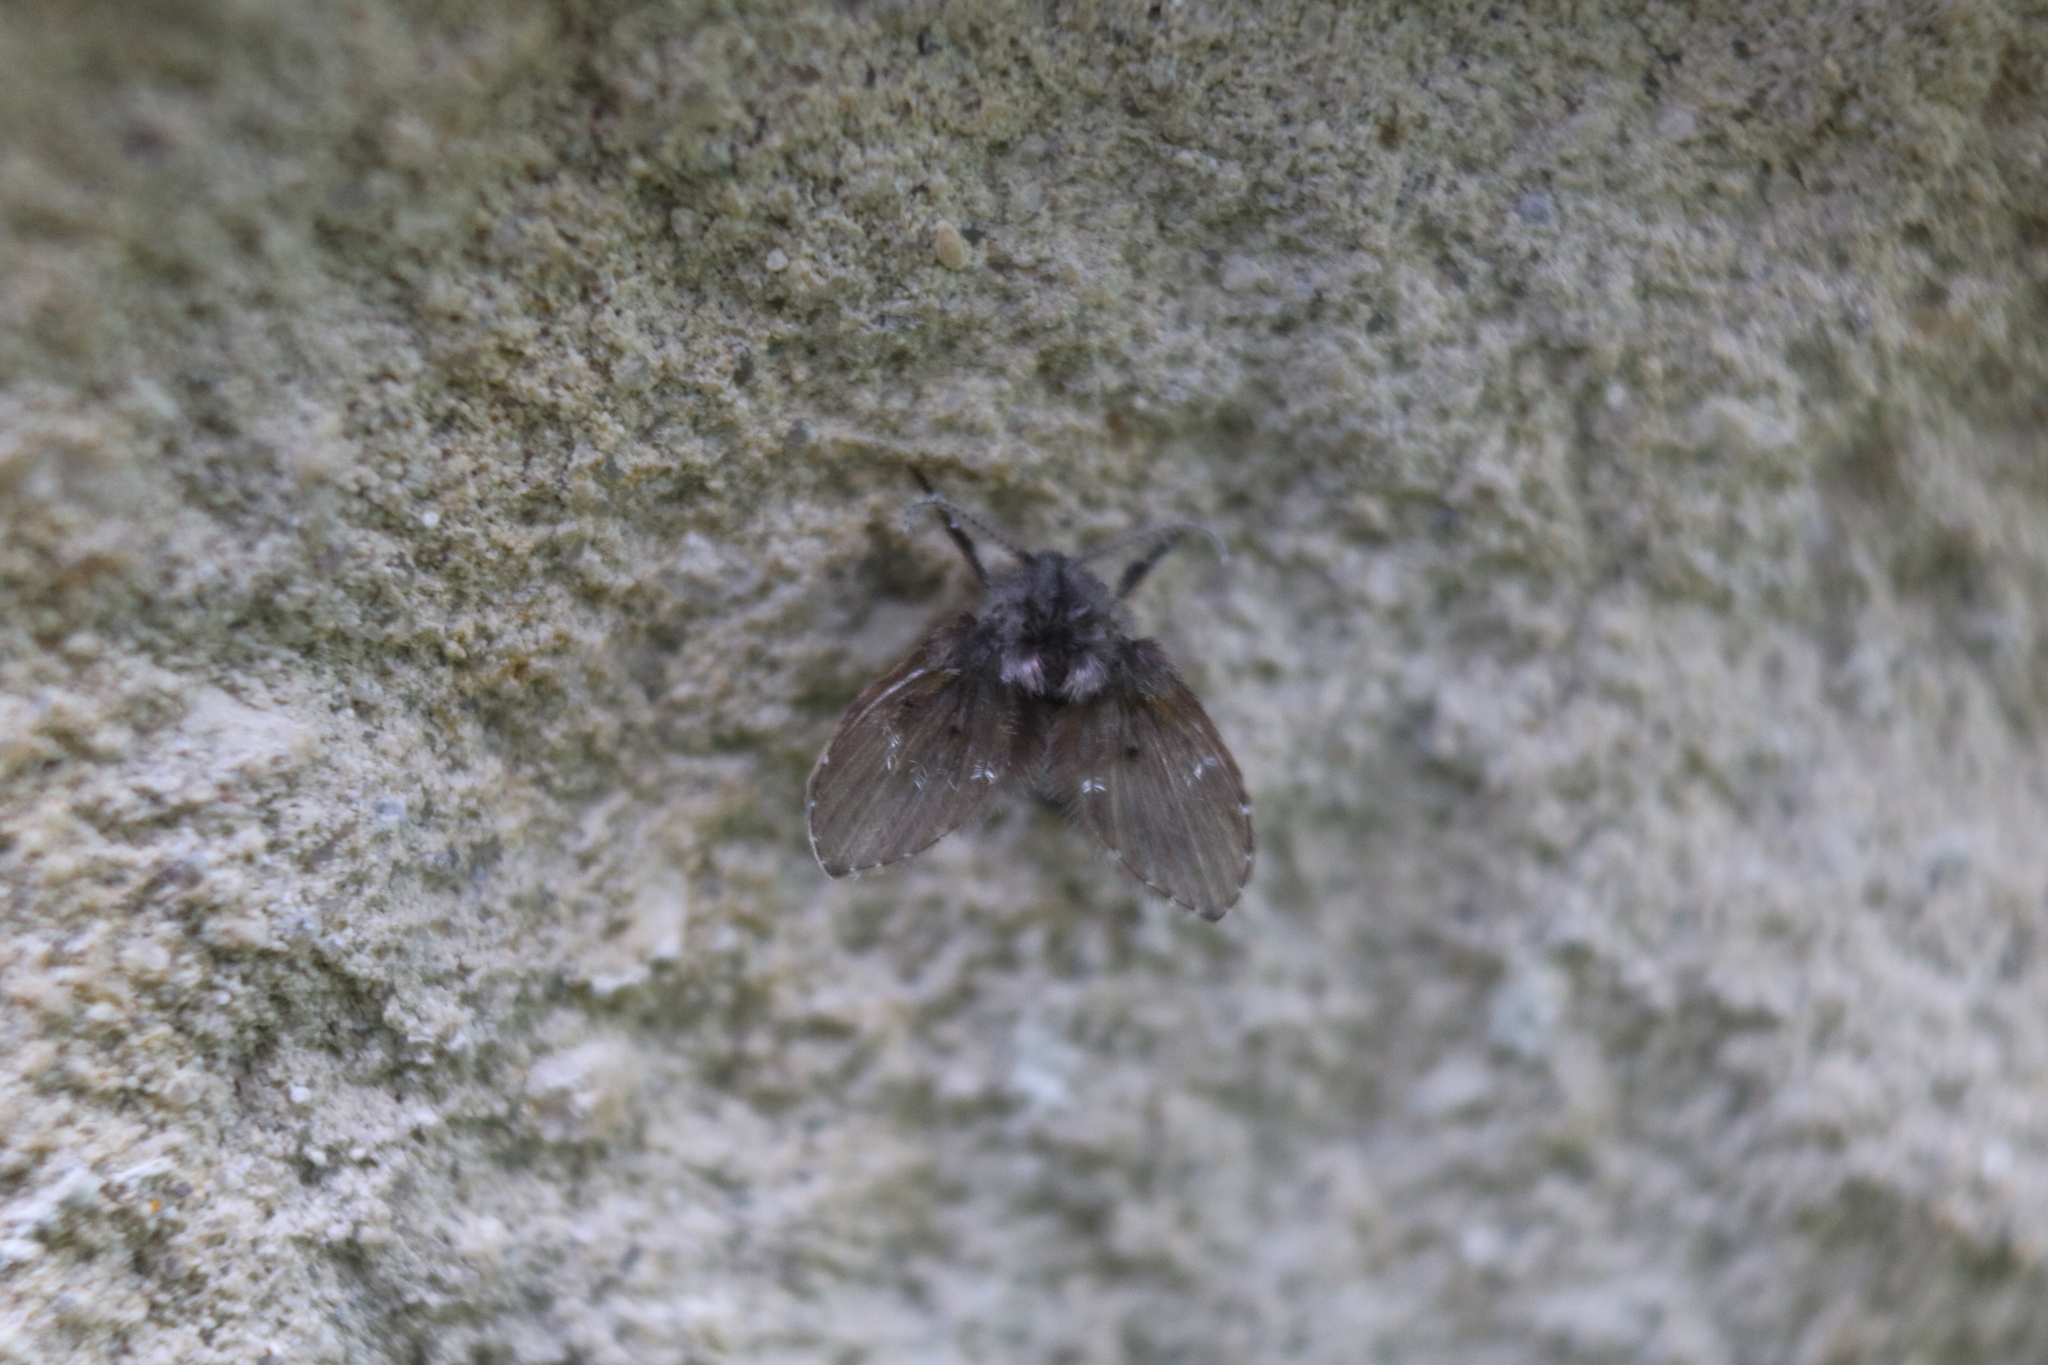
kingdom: Animalia
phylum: Arthropoda
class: Insecta
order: Diptera
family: Psychodidae
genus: Clogmia
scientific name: Clogmia albipunctatus
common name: White-spotted moth fly
